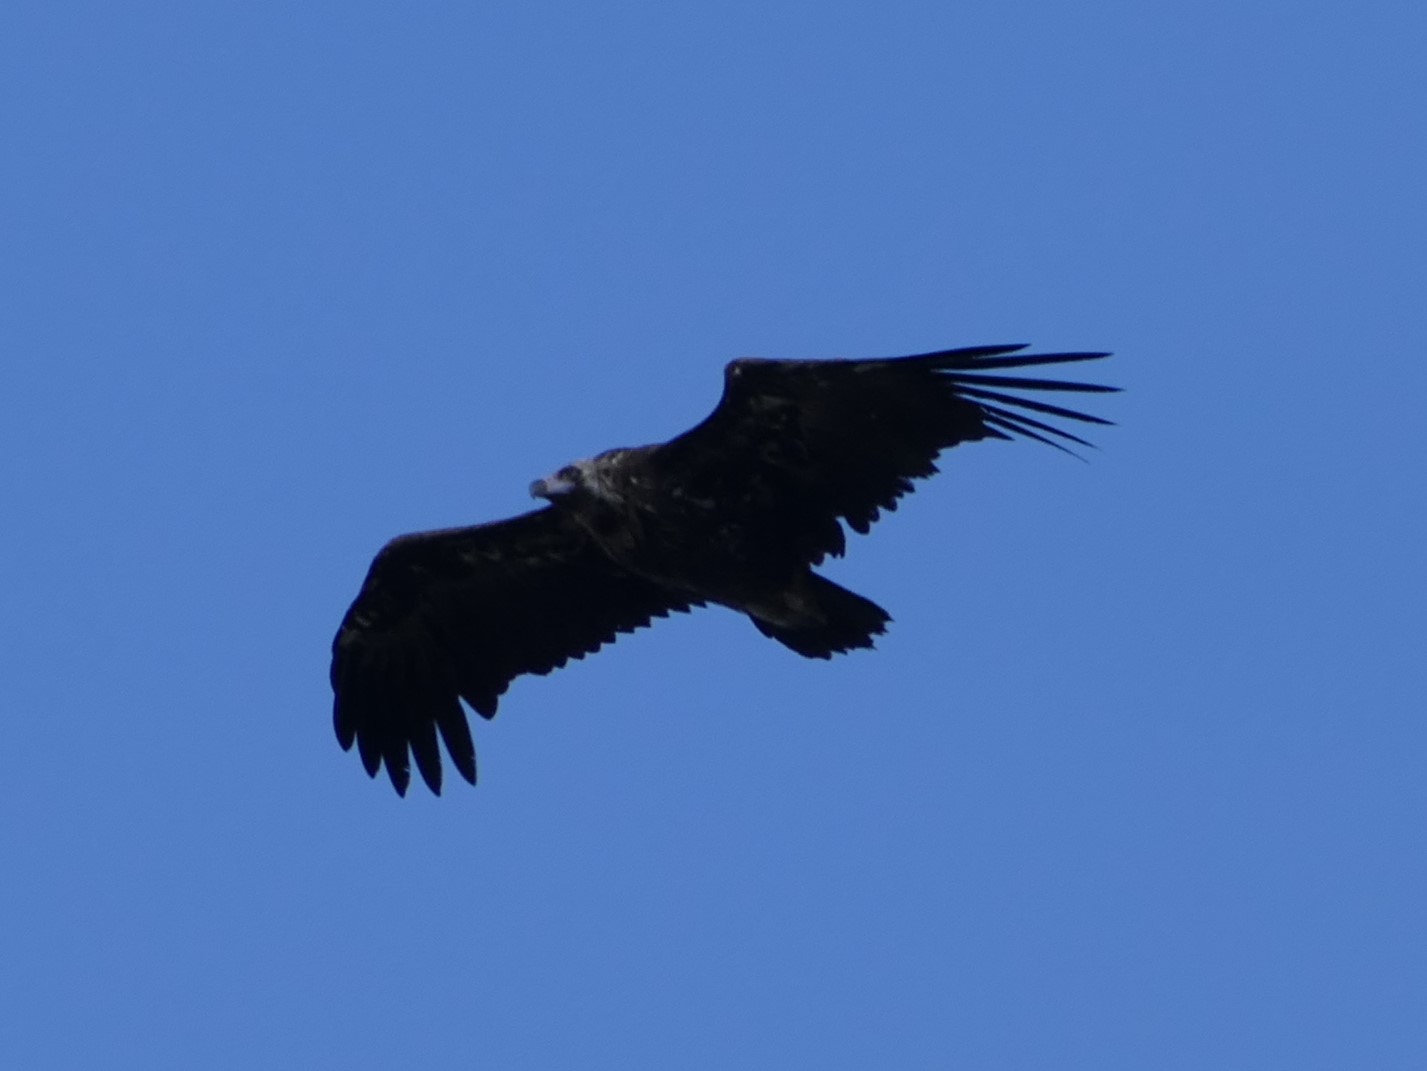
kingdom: Animalia
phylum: Chordata
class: Aves
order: Accipitriformes
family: Accipitridae
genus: Aegypius
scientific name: Aegypius monachus
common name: Cinereous vulture
